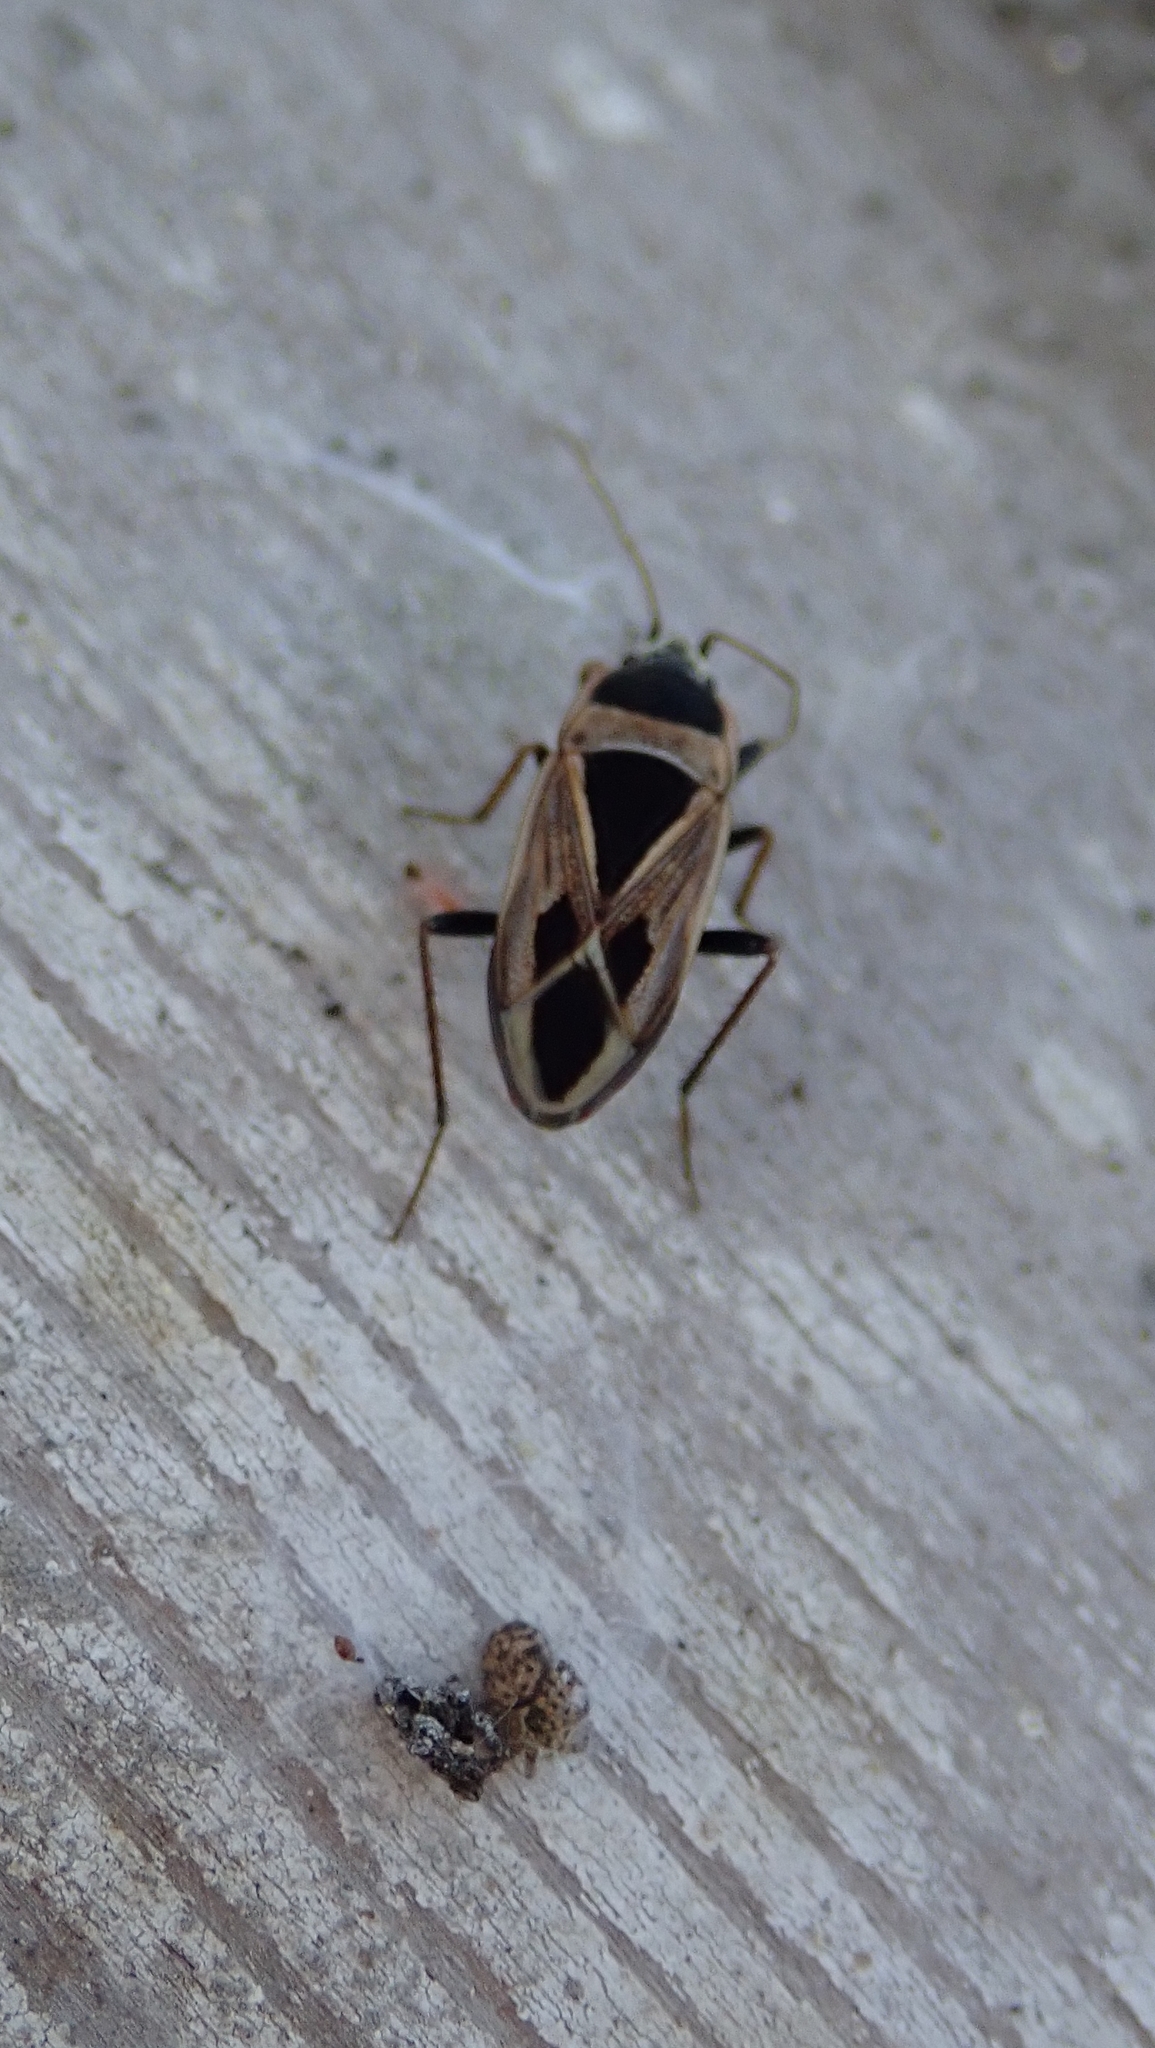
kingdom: Animalia
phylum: Arthropoda
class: Insecta
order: Hemiptera
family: Rhyparochromidae
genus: Xanthochilus
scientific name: Xanthochilus saturnius
